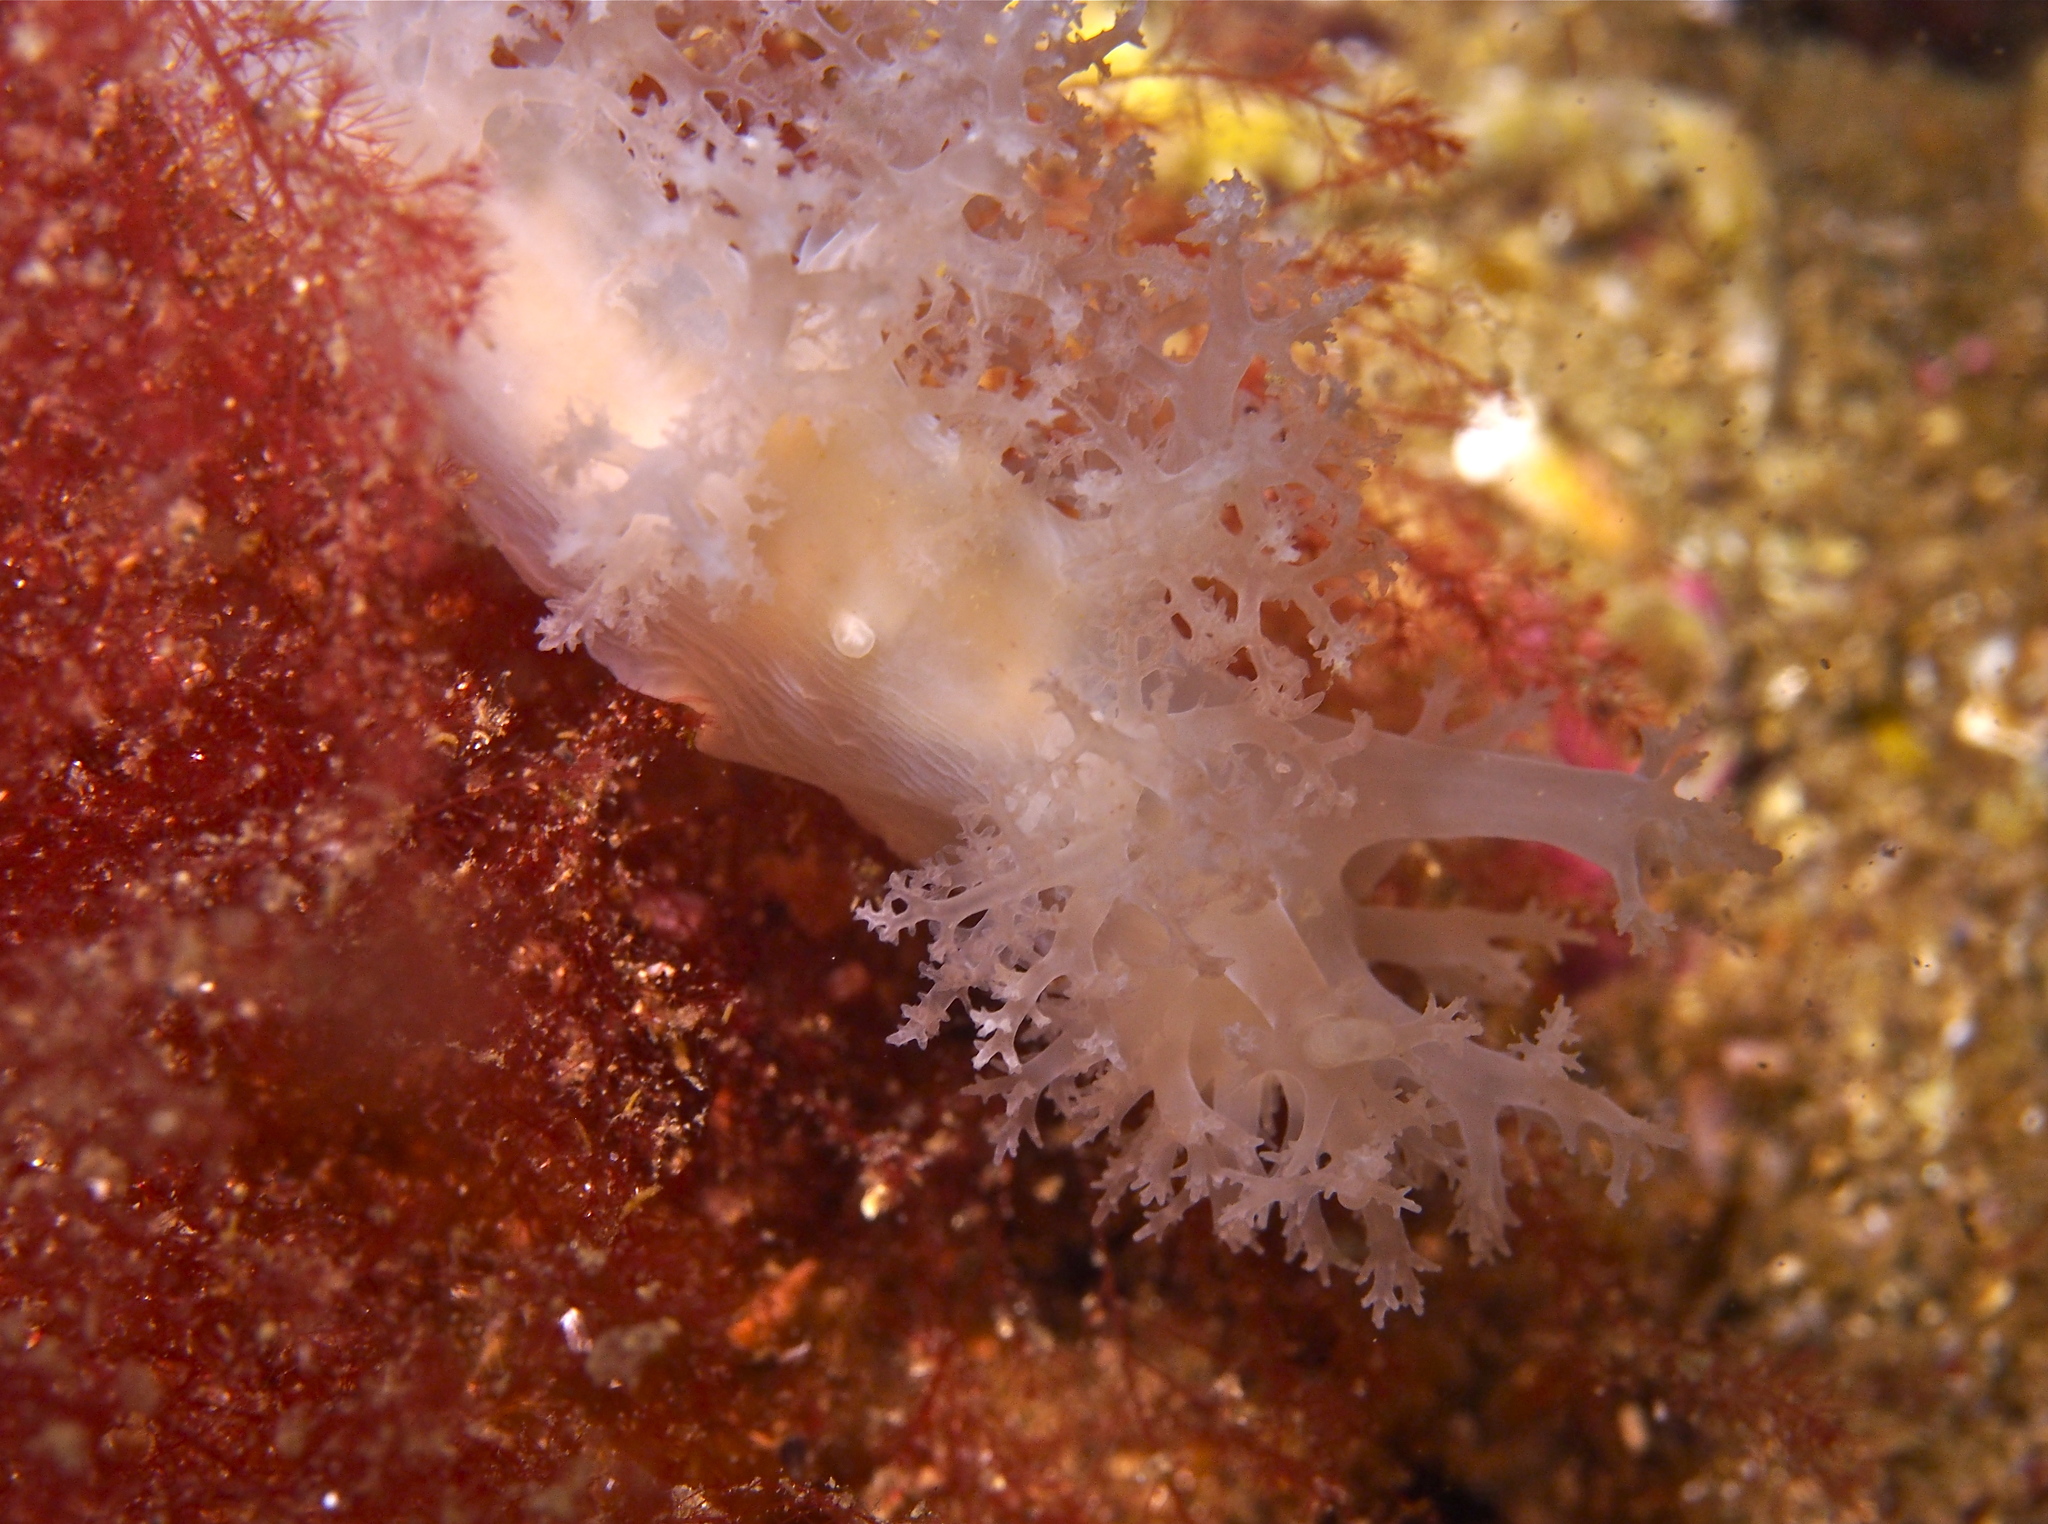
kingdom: Animalia
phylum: Mollusca
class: Gastropoda
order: Nudibranchia
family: Dendronotidae
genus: Dendronotus
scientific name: Dendronotus lacteus
